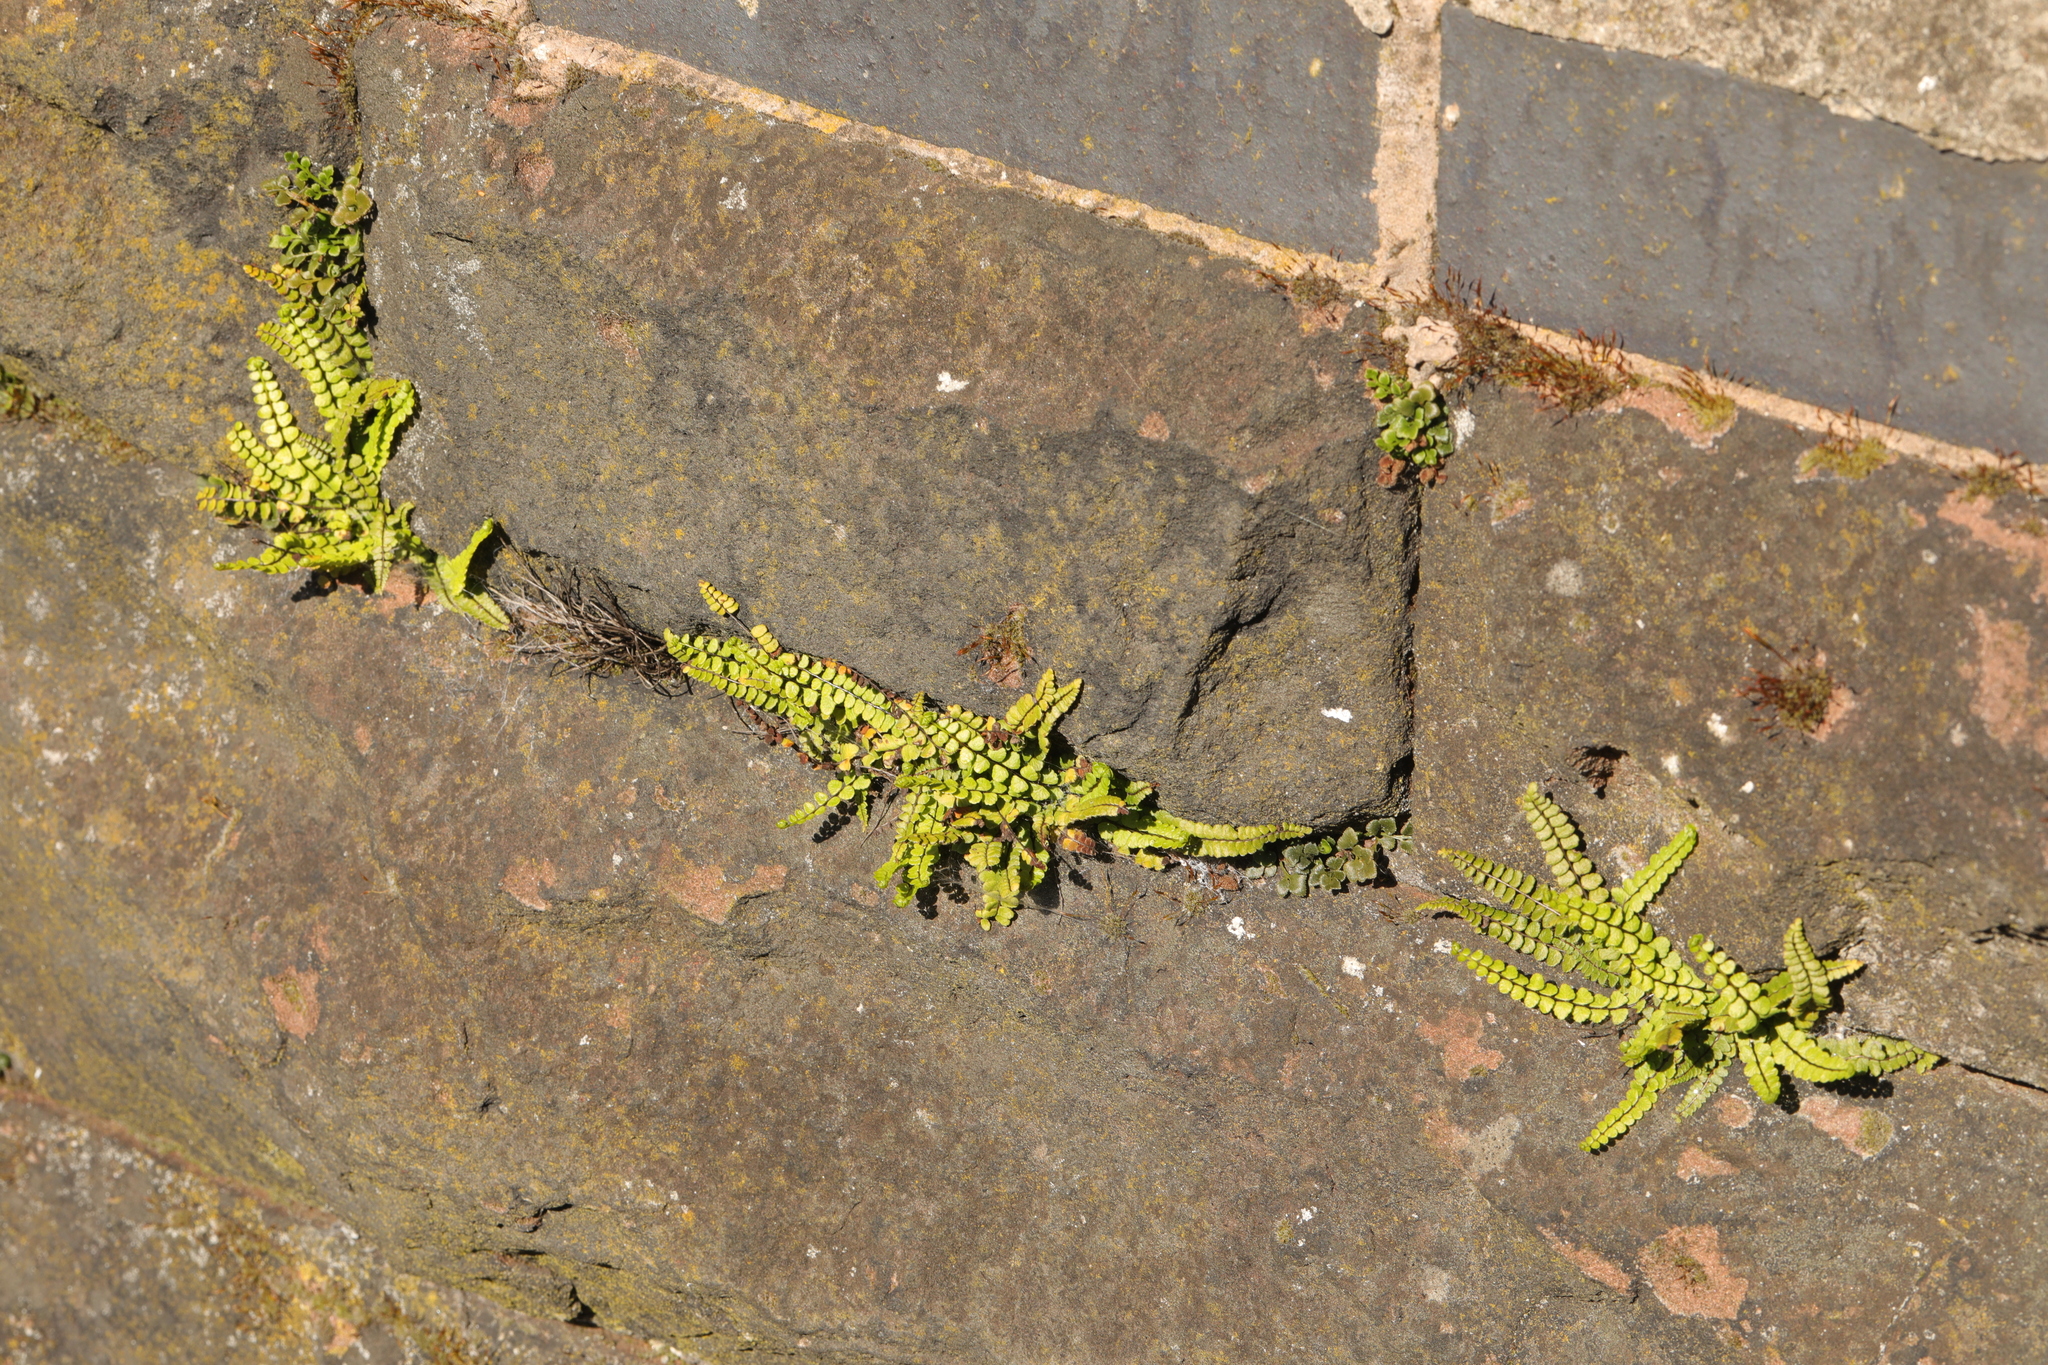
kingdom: Plantae
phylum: Tracheophyta
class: Polypodiopsida
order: Polypodiales
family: Aspleniaceae
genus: Asplenium
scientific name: Asplenium trichomanes
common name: Maidenhair spleenwort
